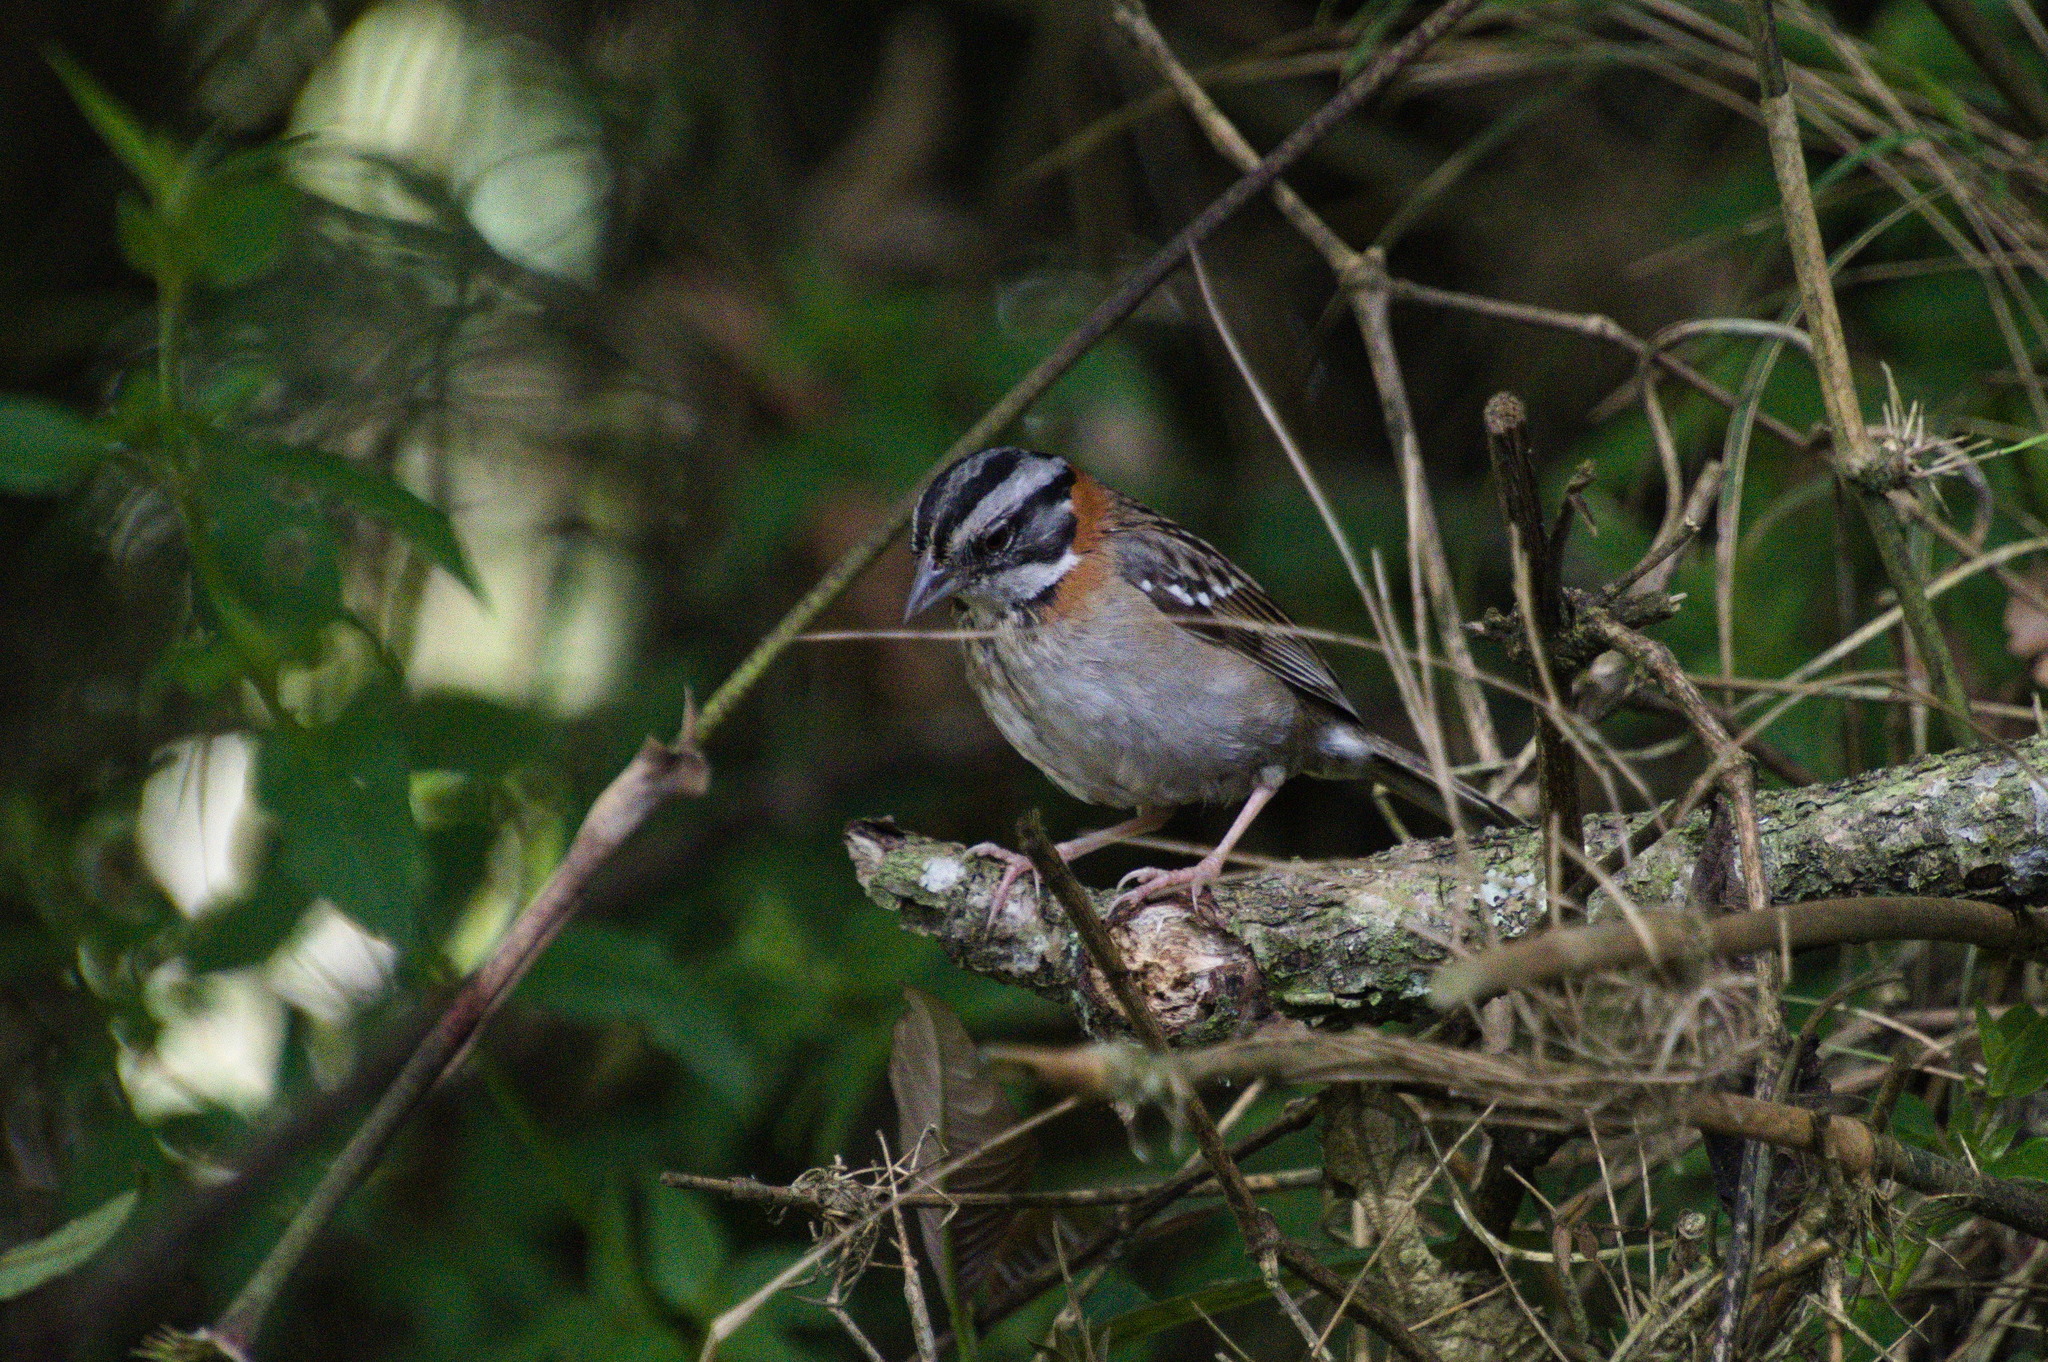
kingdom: Animalia
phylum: Chordata
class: Aves
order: Passeriformes
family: Passerellidae
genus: Zonotrichia
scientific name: Zonotrichia capensis
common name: Rufous-collared sparrow
